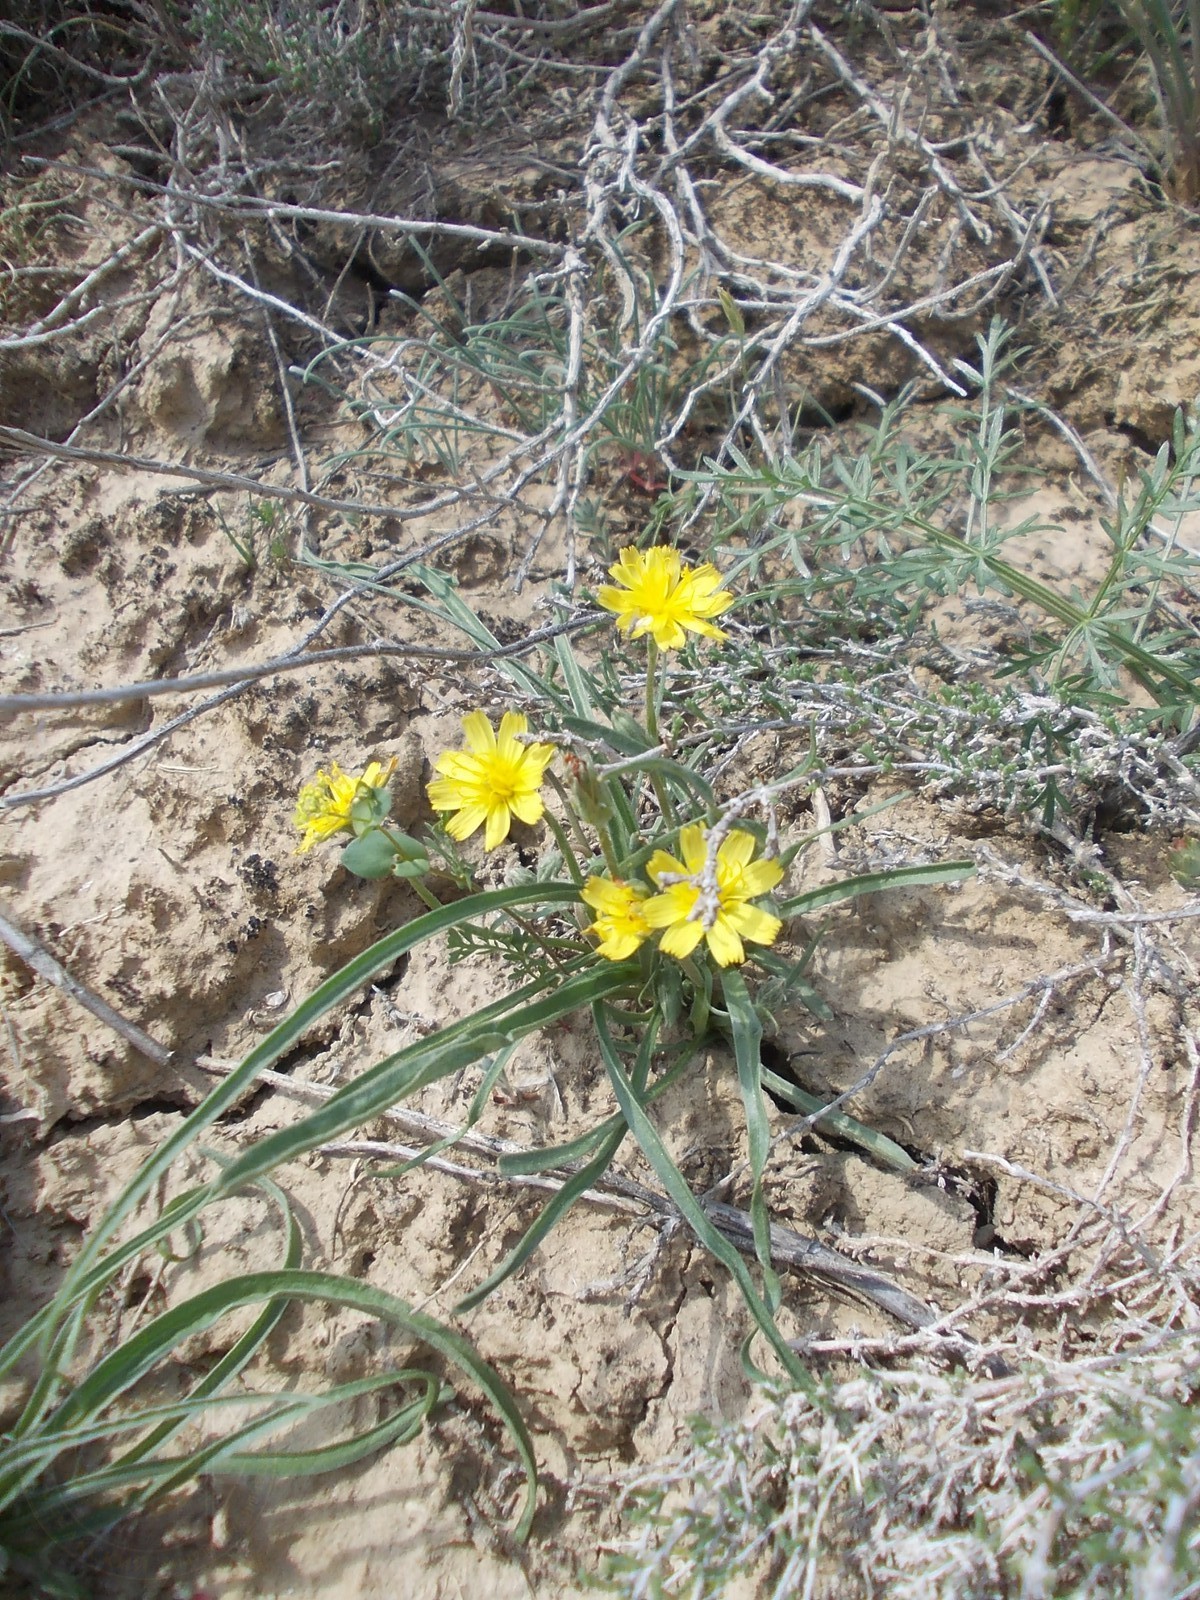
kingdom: Plantae
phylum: Tracheophyta
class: Magnoliopsida
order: Asterales
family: Asteraceae
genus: Gelasia
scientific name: Gelasia tuberosa
